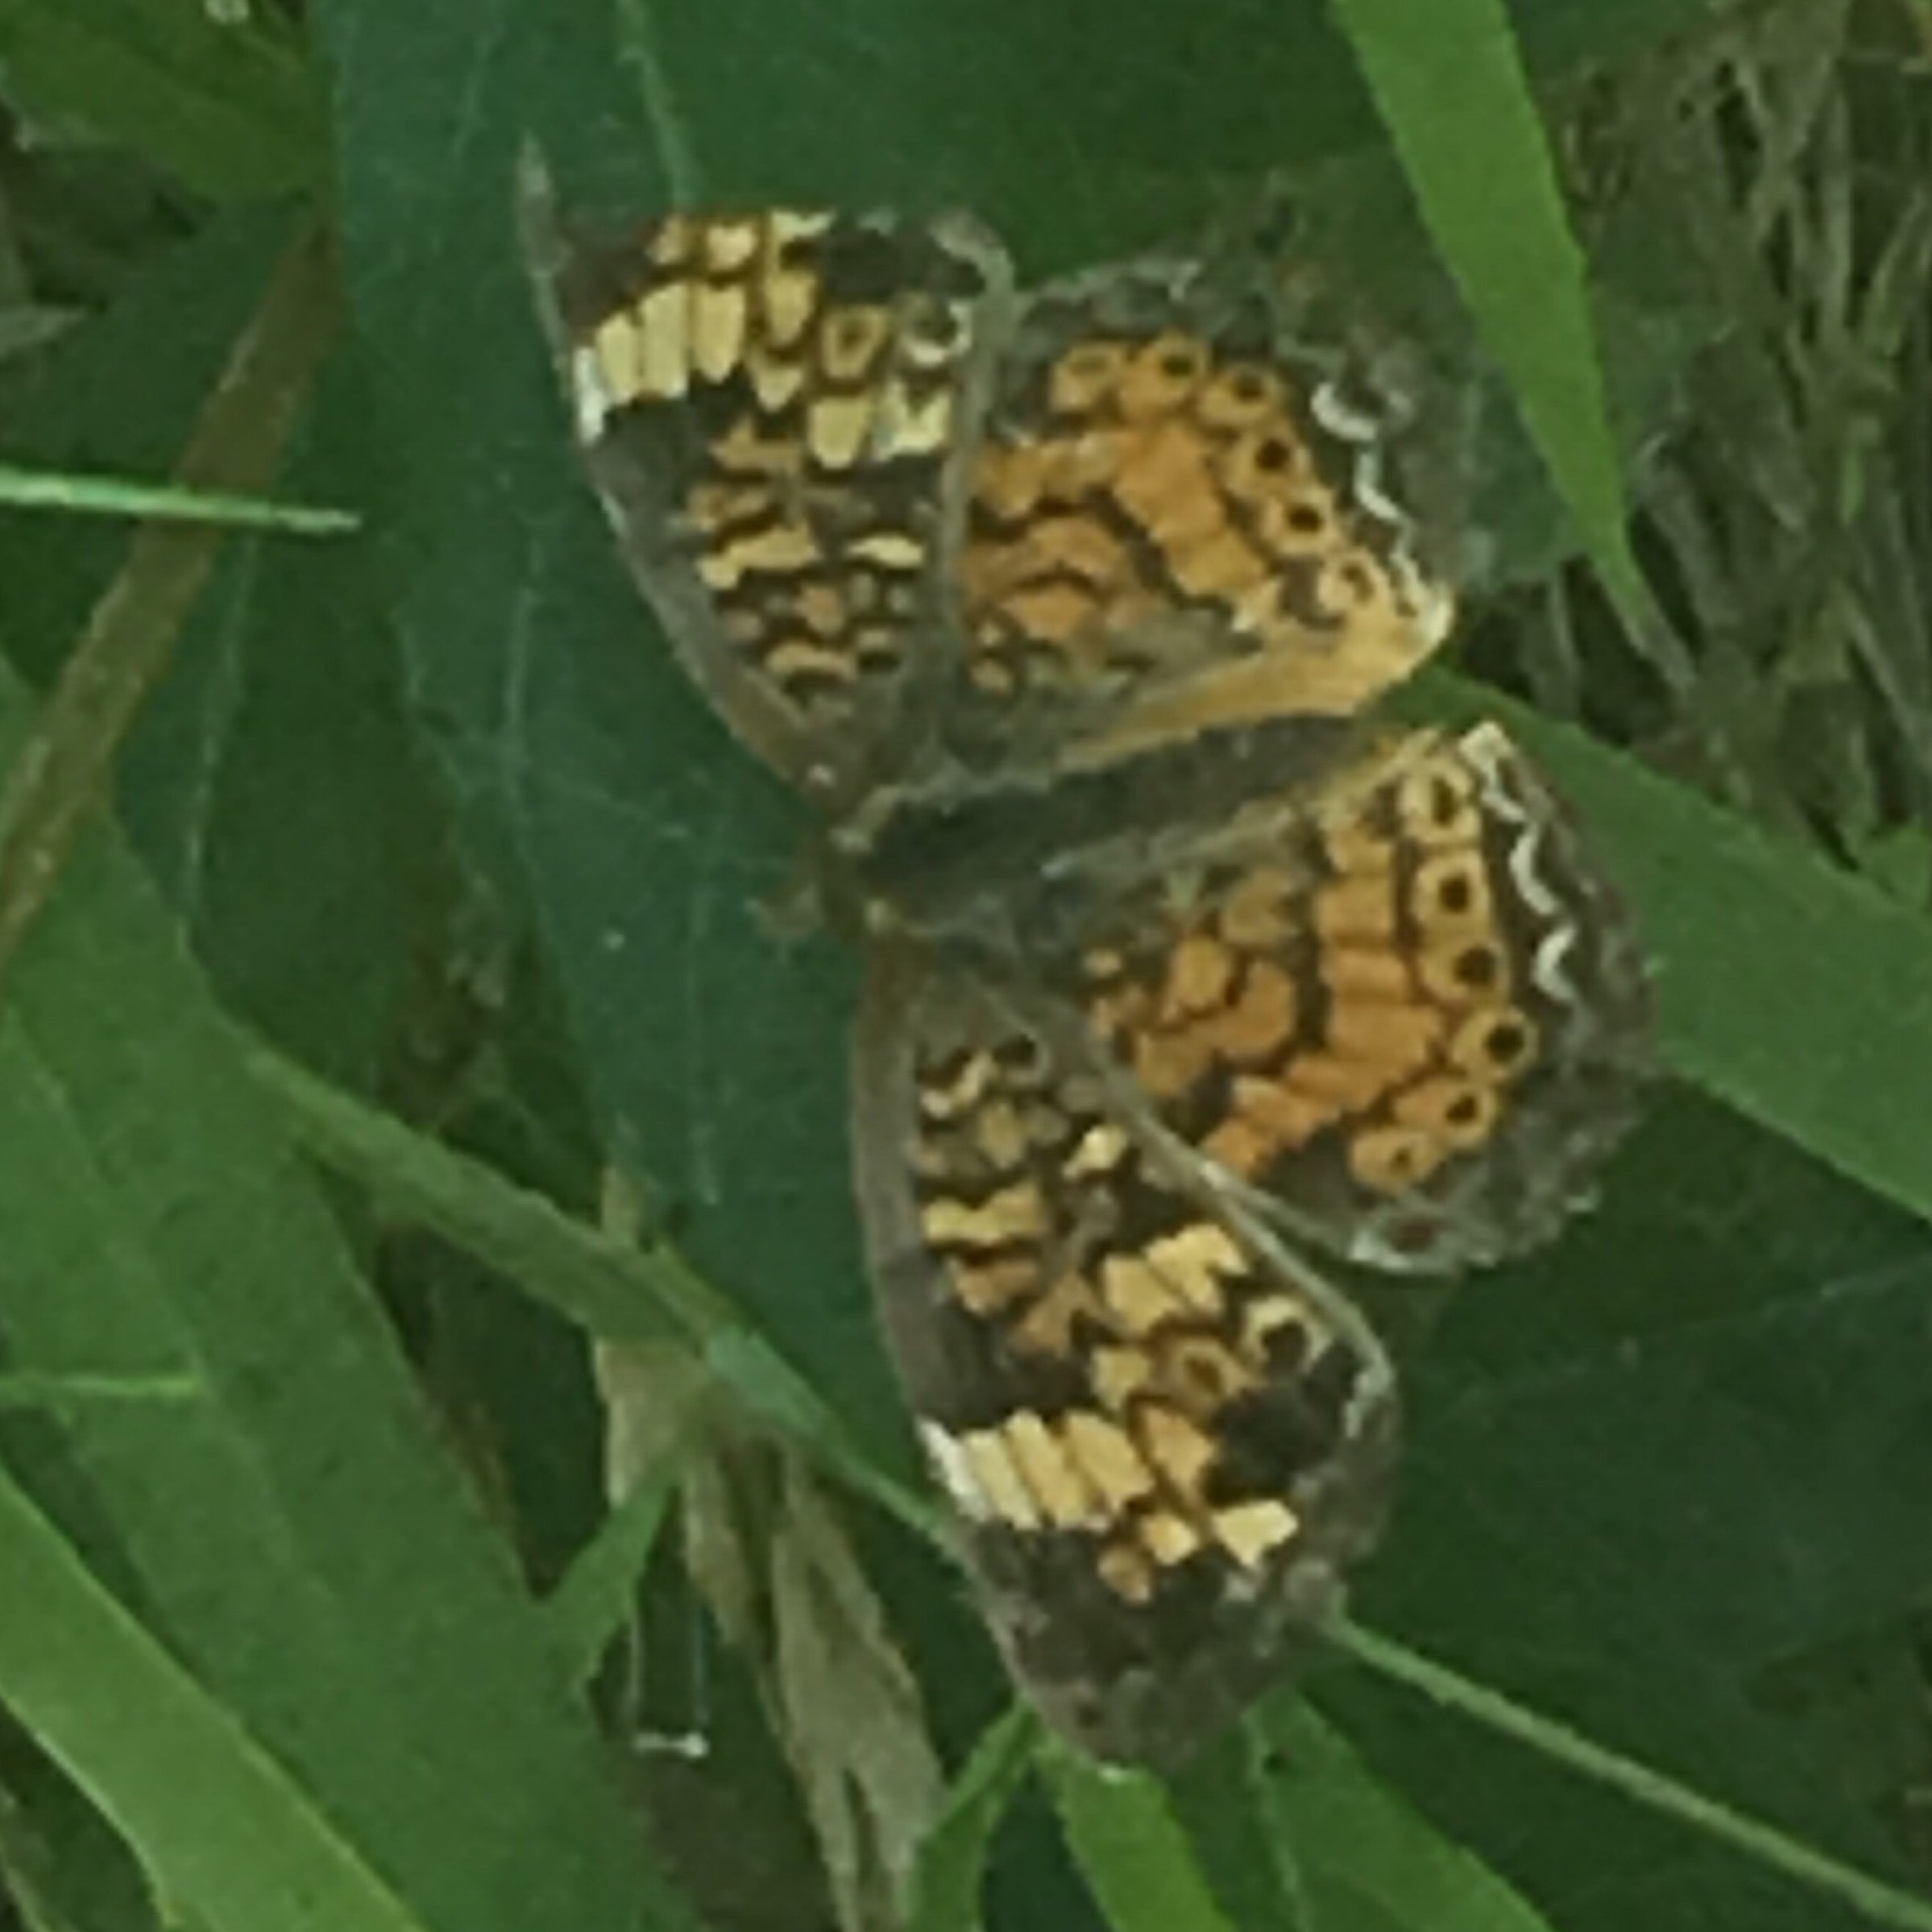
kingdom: Animalia
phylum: Arthropoda
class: Insecta
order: Lepidoptera
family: Nymphalidae
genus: Phyciodes
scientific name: Phyciodes tharos
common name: Pearl crescent
